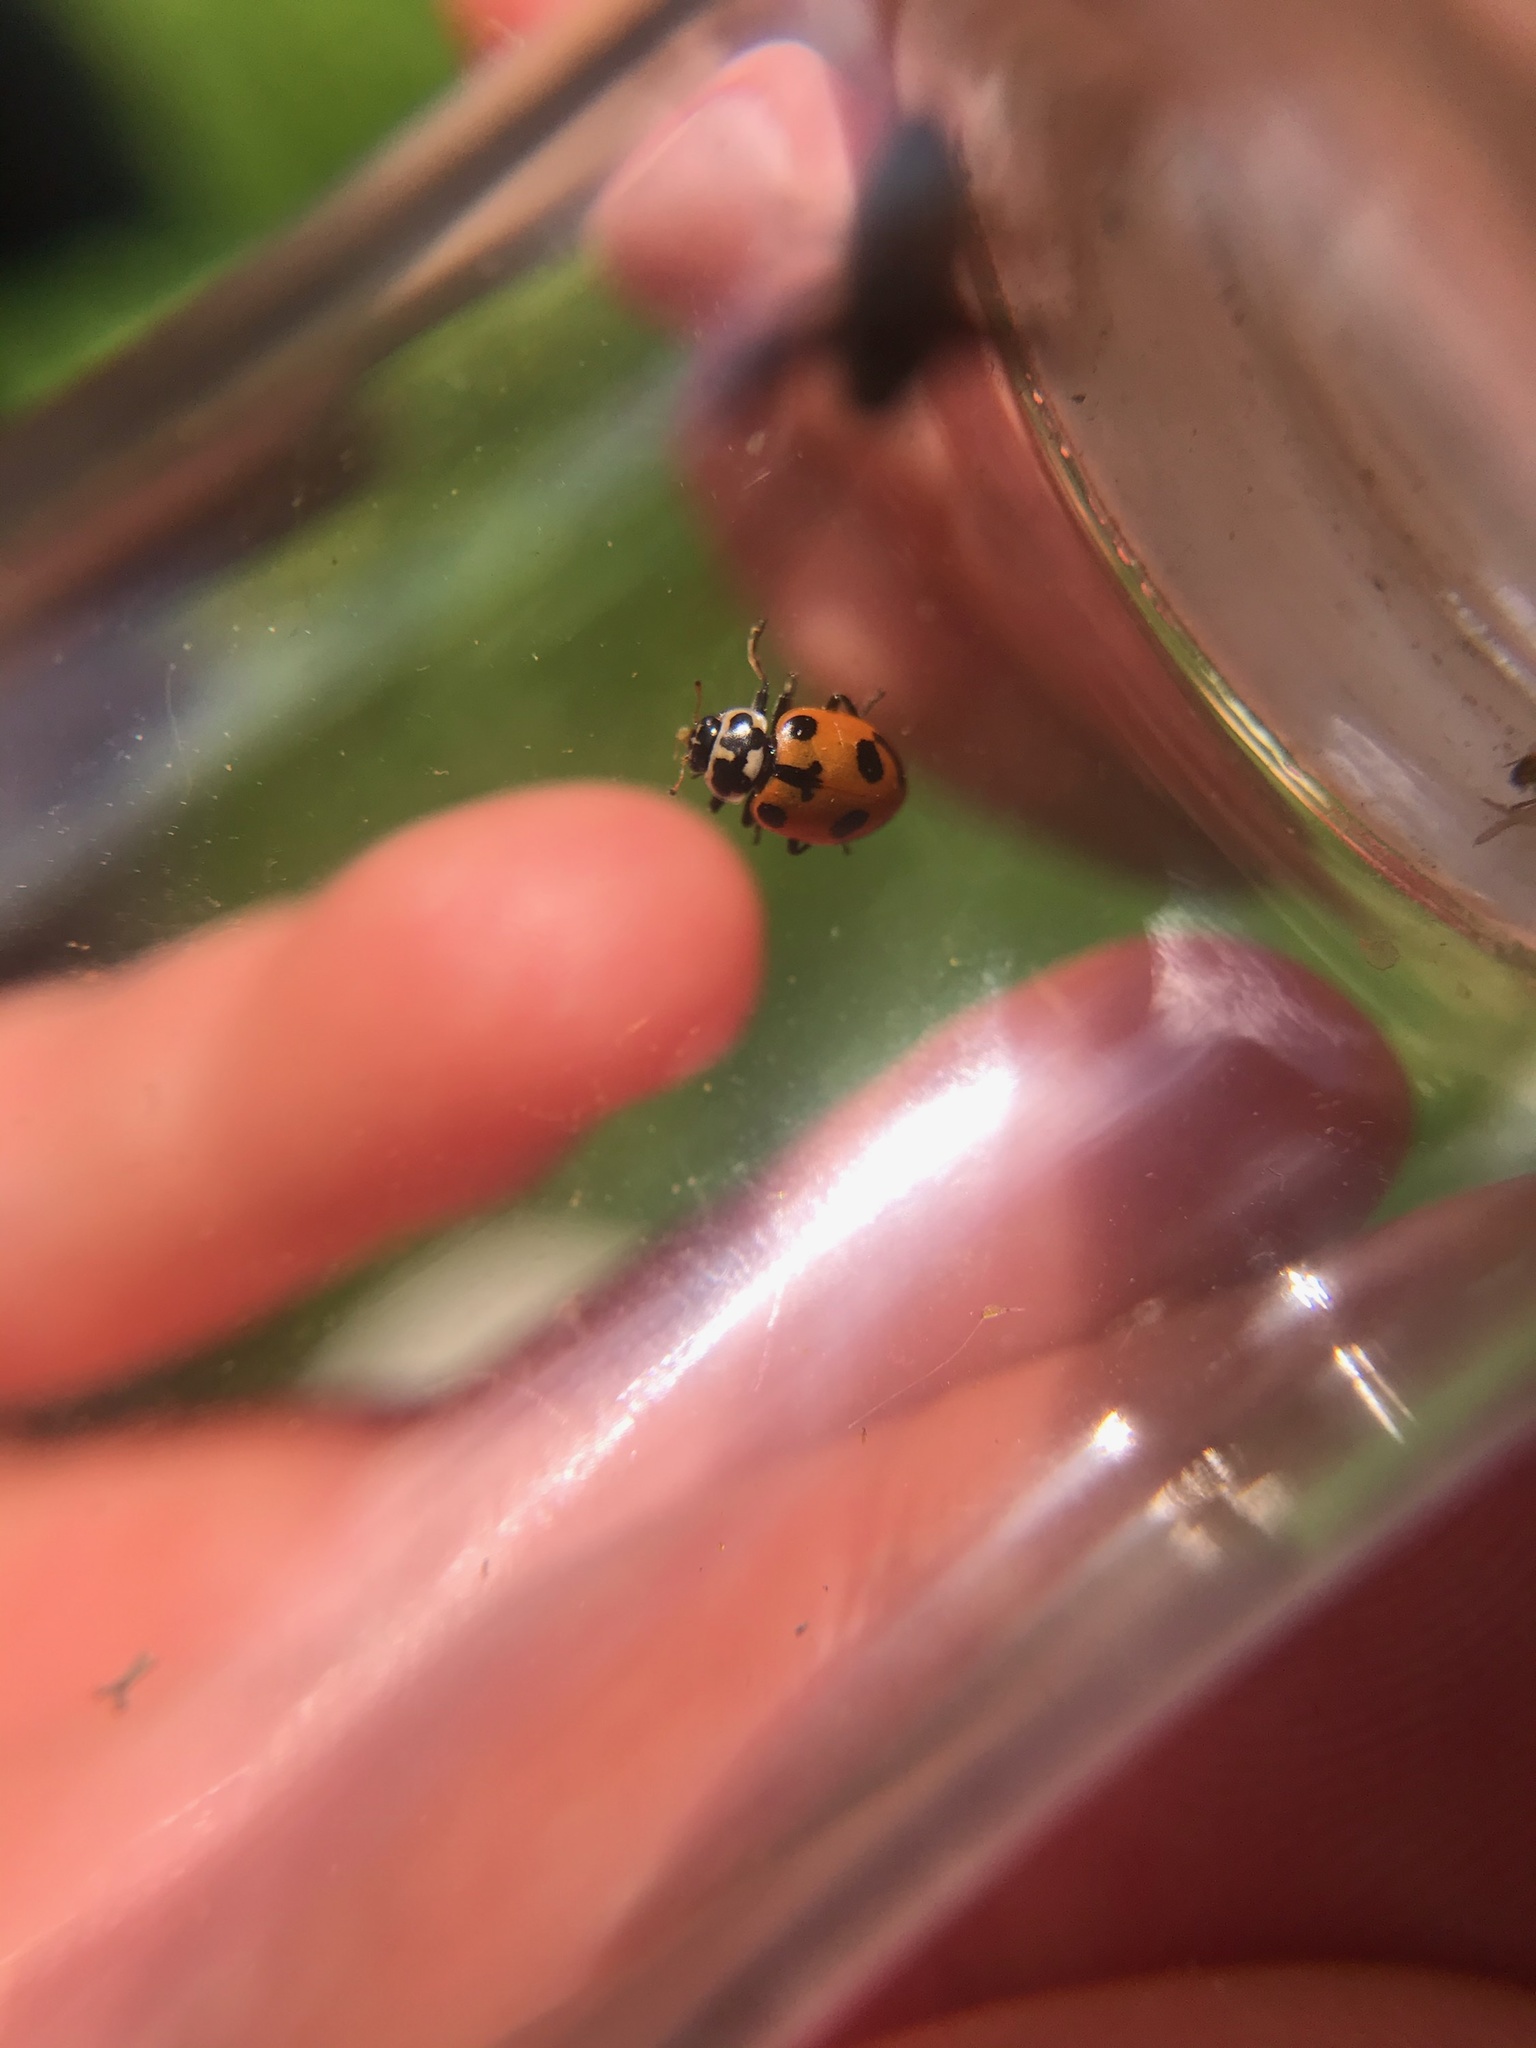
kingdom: Animalia
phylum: Arthropoda
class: Insecta
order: Coleoptera
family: Coccinellidae
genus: Hippodamia
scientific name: Hippodamia parenthesis
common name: Parenthesis lady beetle
